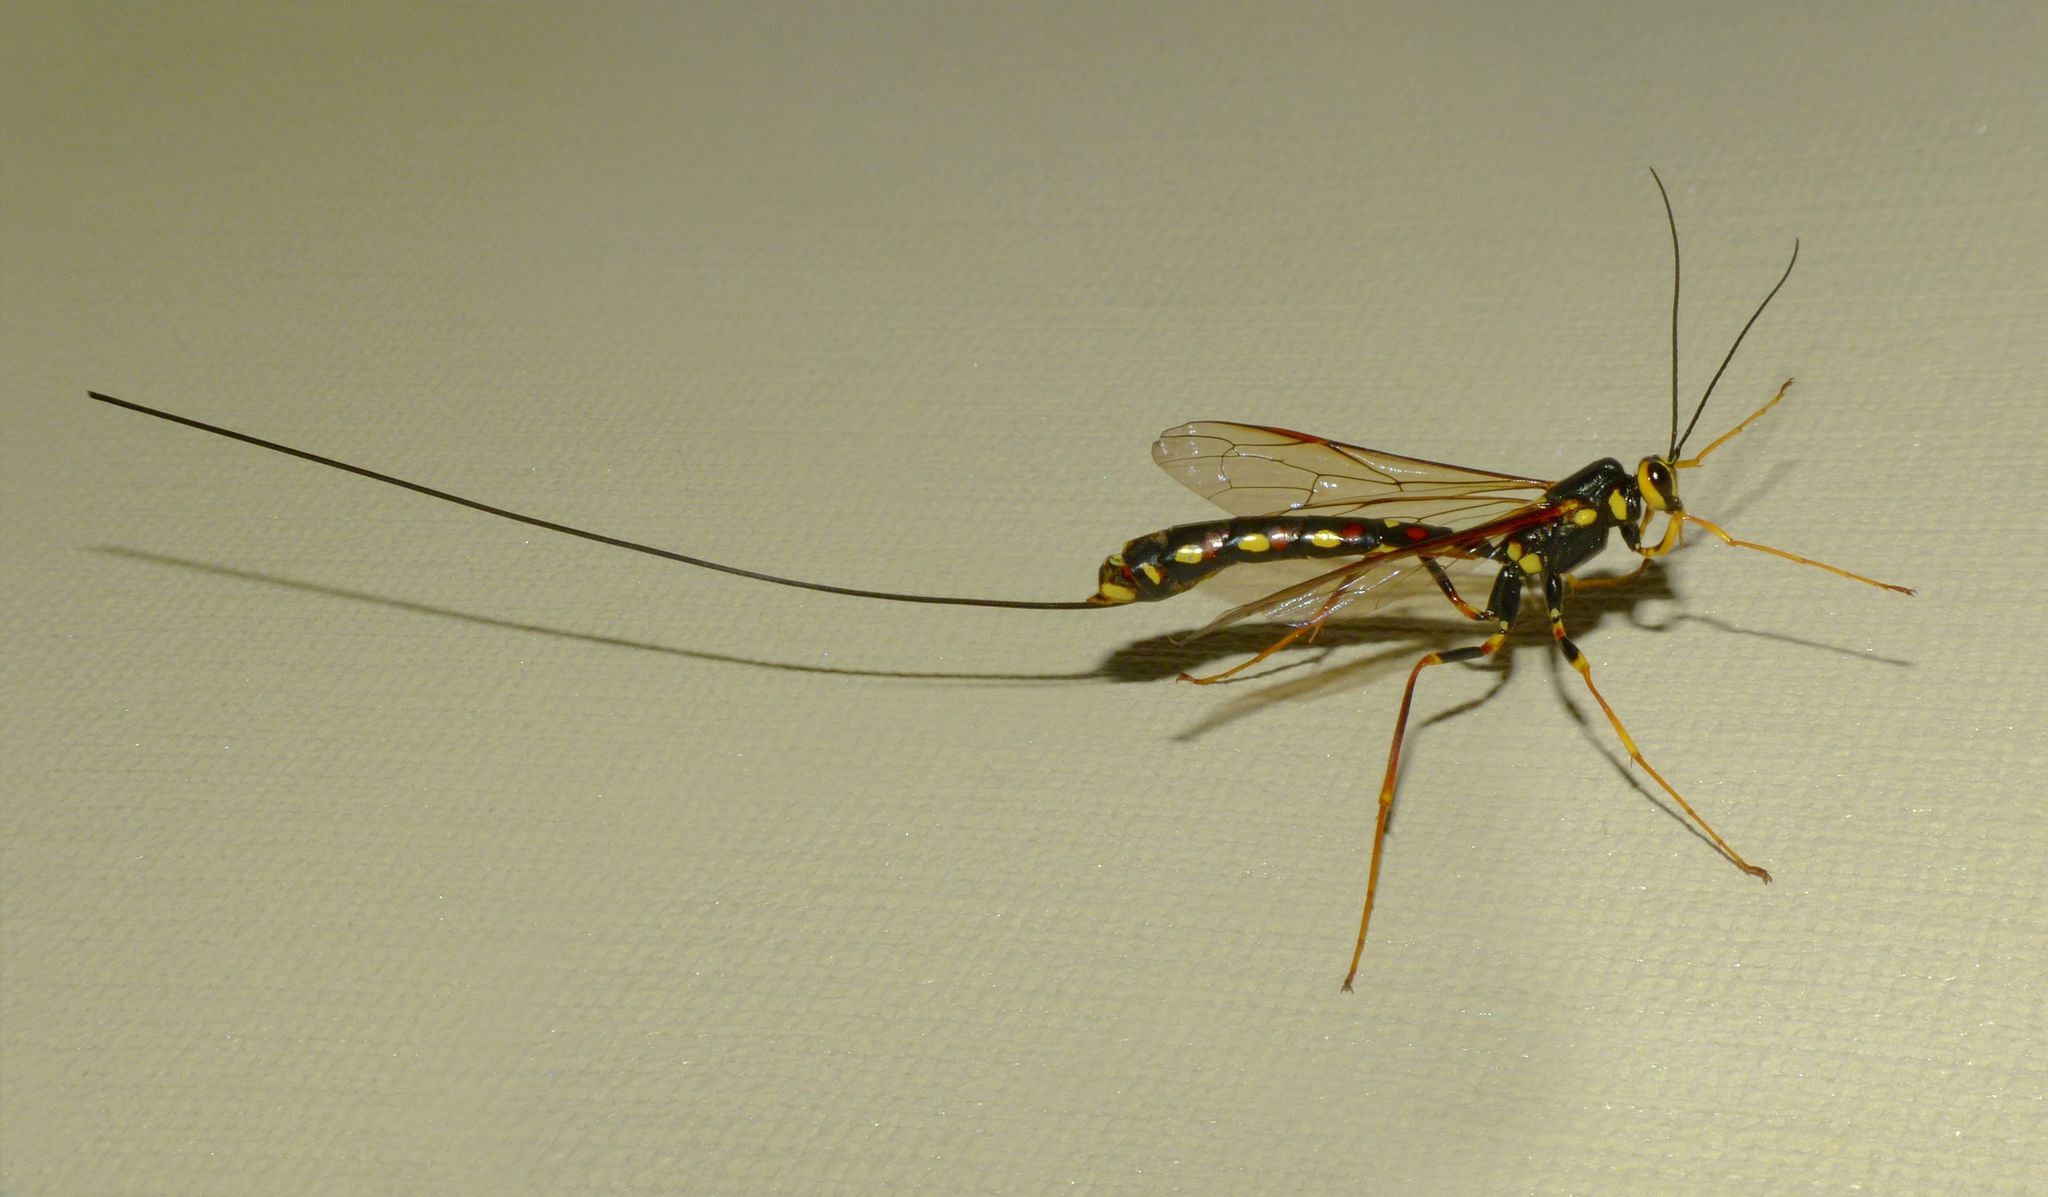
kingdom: Animalia
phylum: Arthropoda
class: Insecta
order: Hymenoptera
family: Ichneumonidae
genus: Megarhyssa
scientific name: Megarhyssa nortoni
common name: Norton's giant ichneumonid wasp
